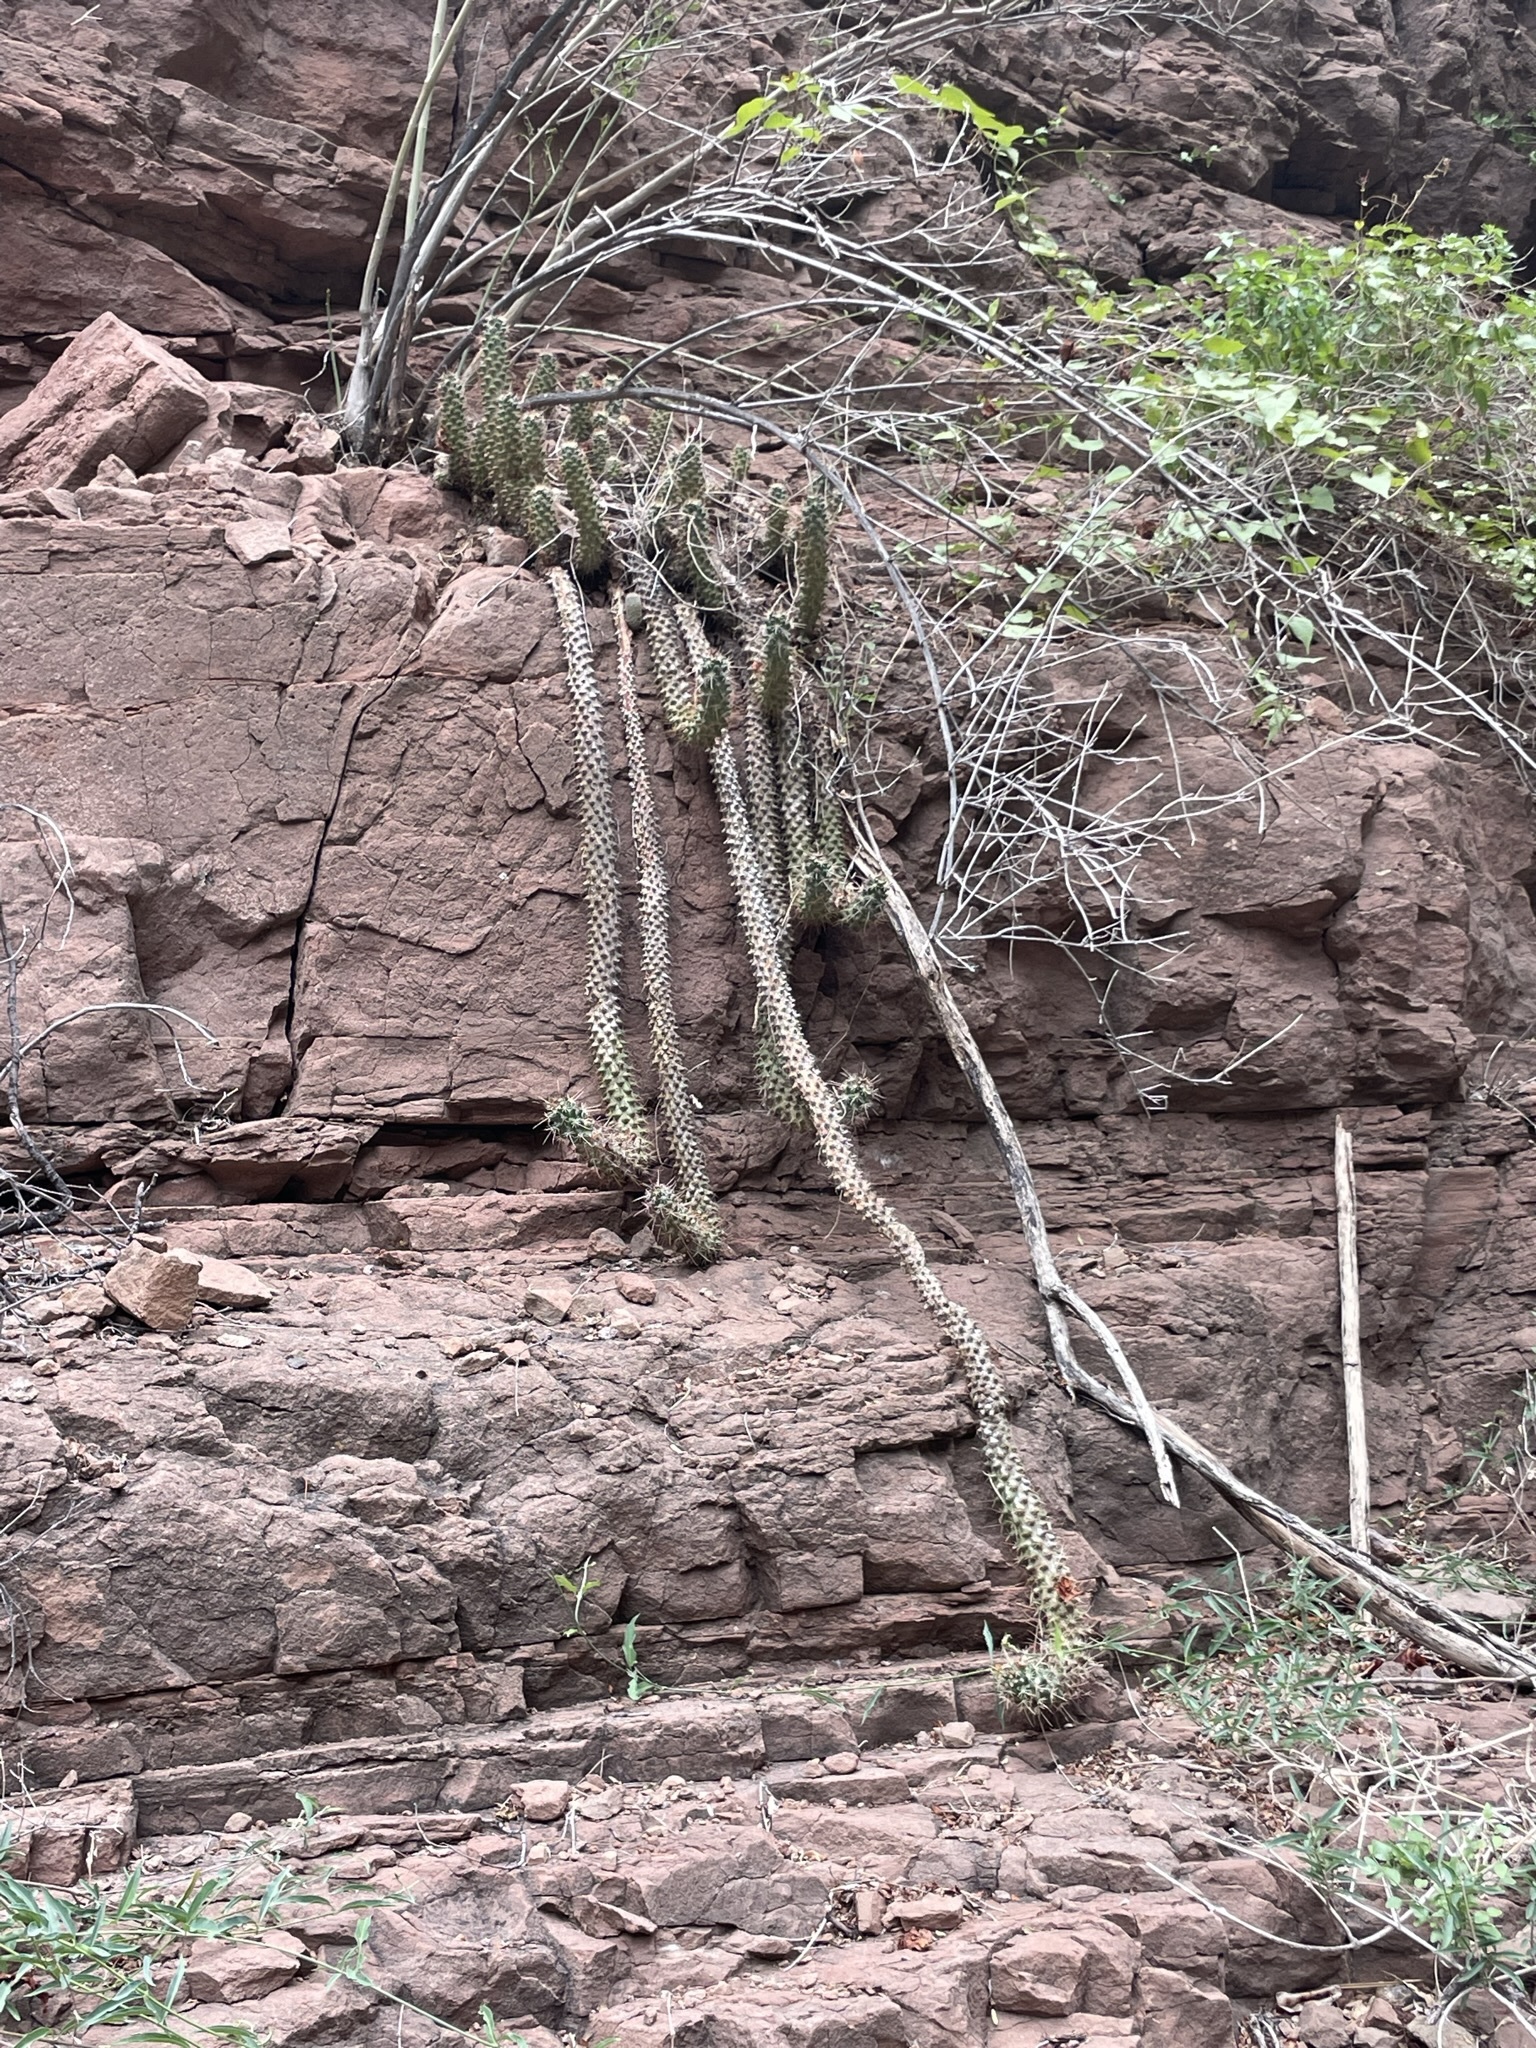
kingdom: Plantae
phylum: Tracheophyta
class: Magnoliopsida
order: Caryophyllales
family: Cactaceae
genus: Cochemiea
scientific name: Cochemiea poselgeri
